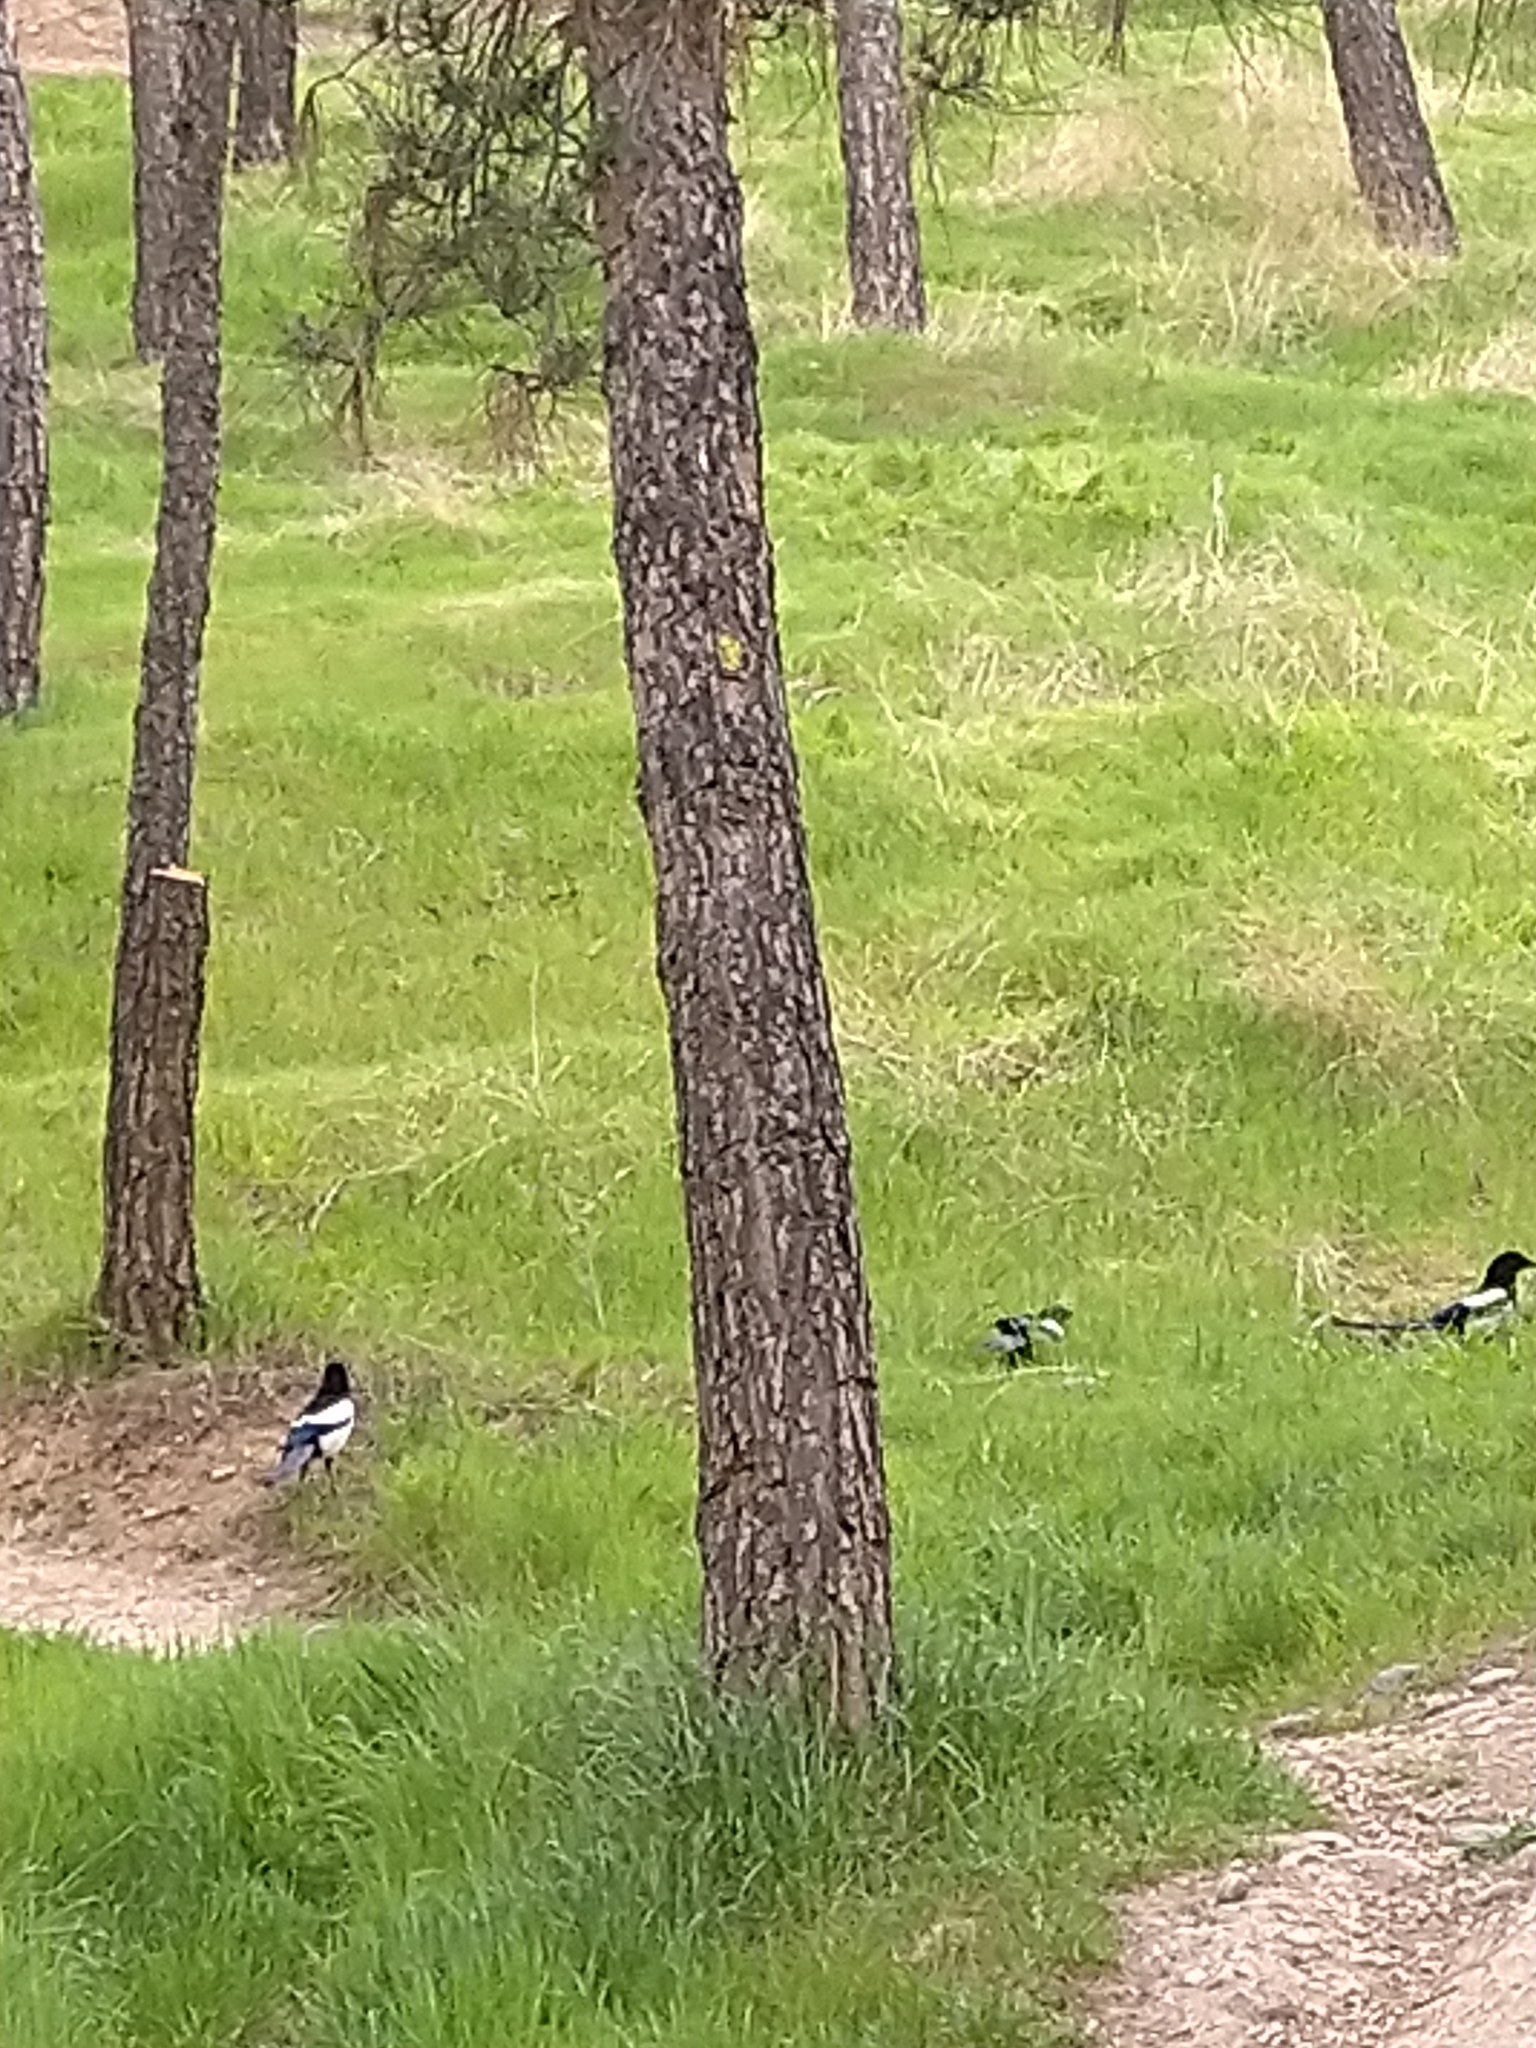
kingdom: Animalia
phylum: Chordata
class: Aves
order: Passeriformes
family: Corvidae
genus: Pica
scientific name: Pica pica
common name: Eurasian magpie
